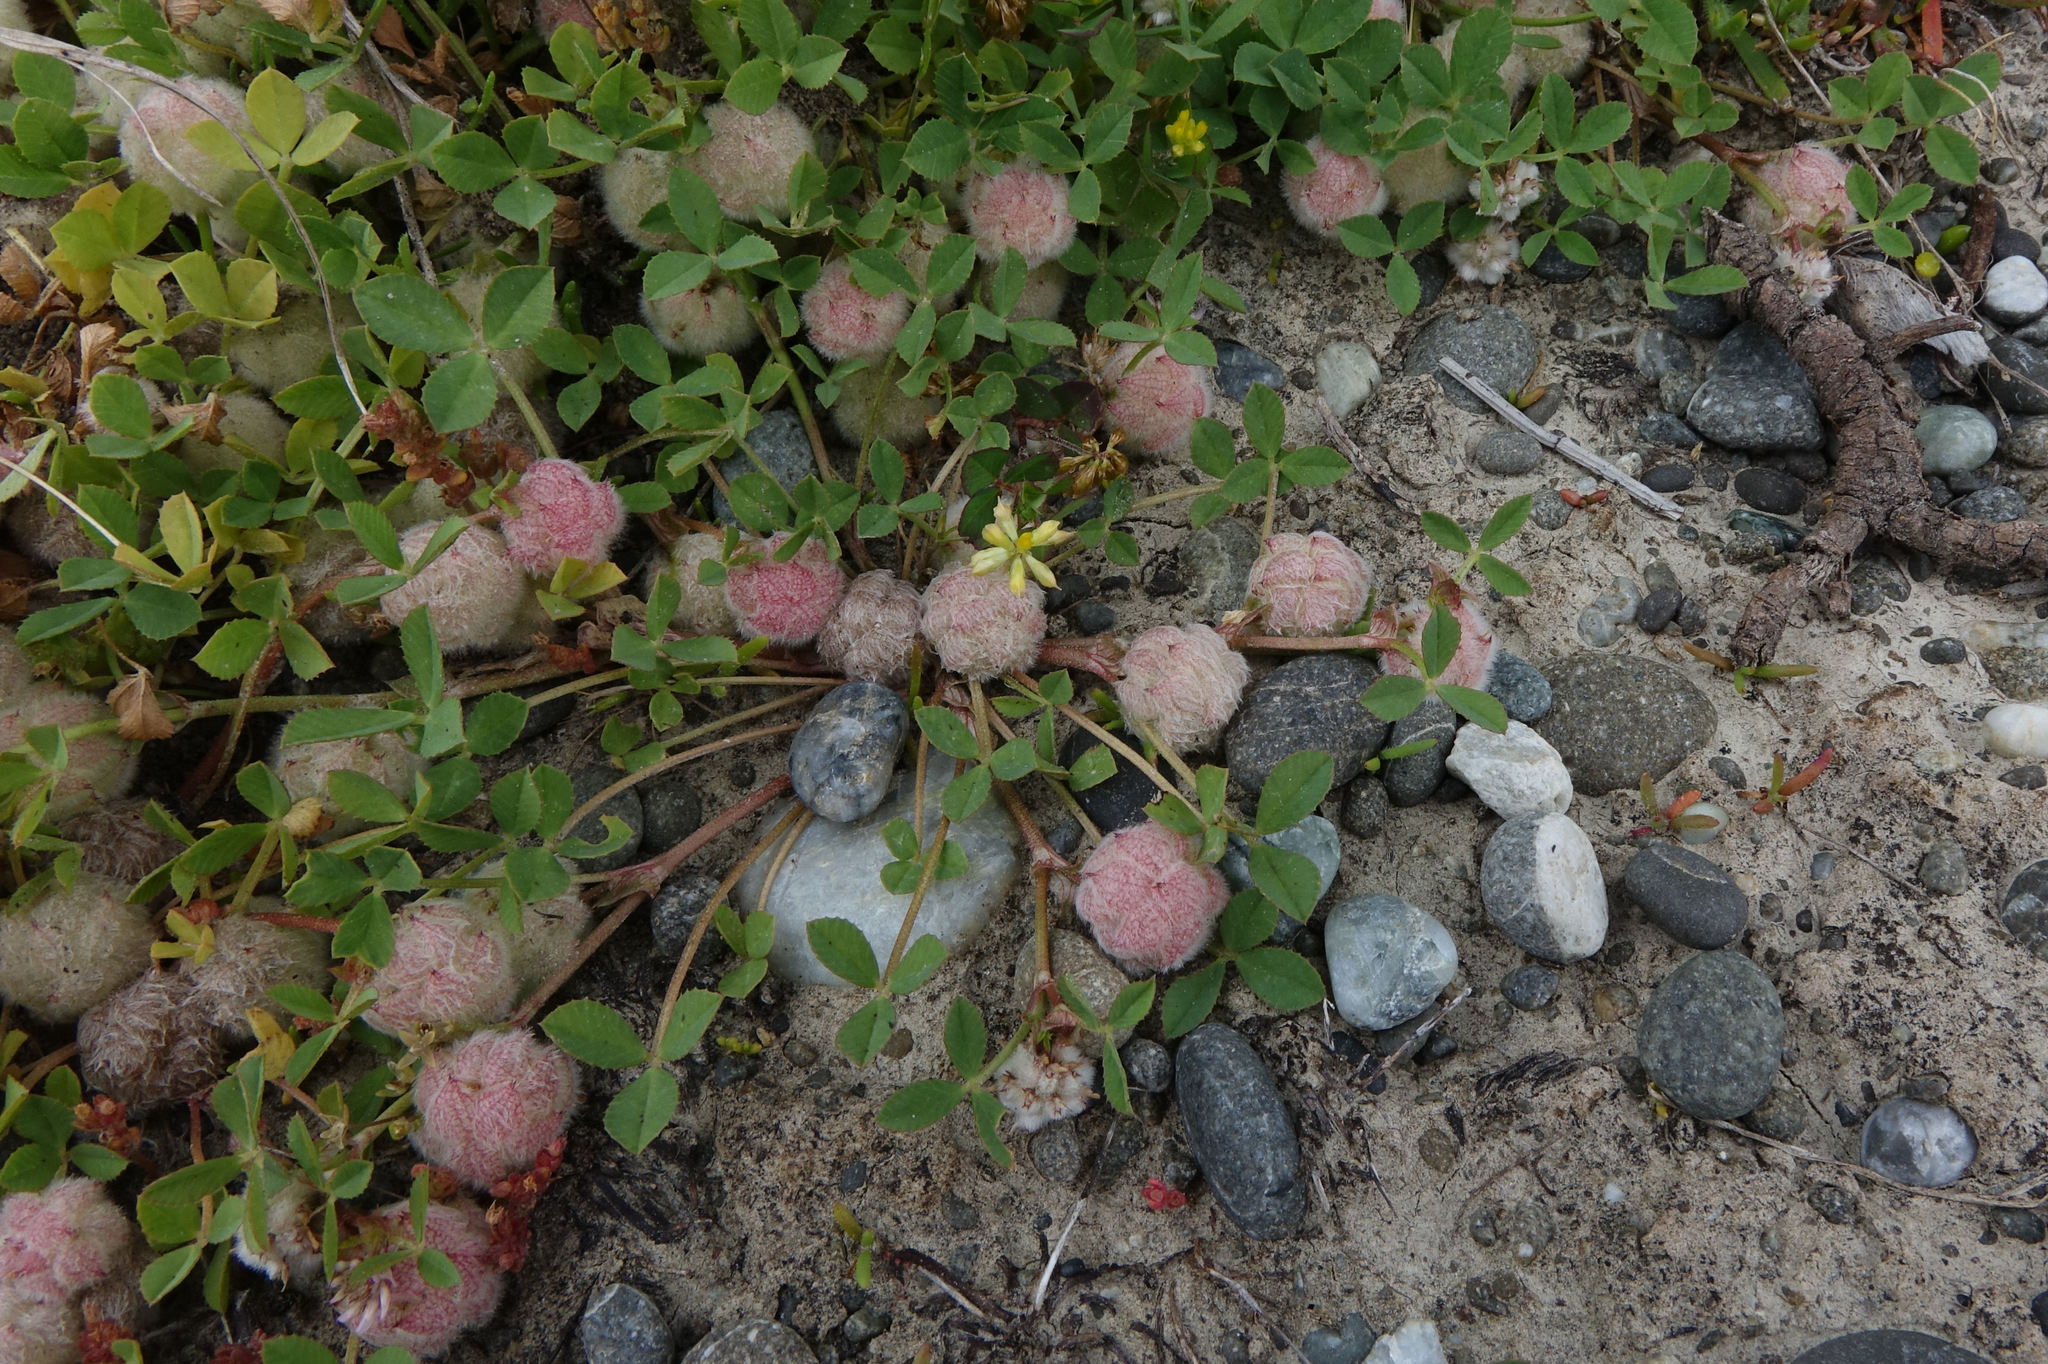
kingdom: Plantae
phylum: Tracheophyta
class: Magnoliopsida
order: Fabales
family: Fabaceae
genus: Trifolium
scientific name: Trifolium tomentosum
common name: Woolly clover
